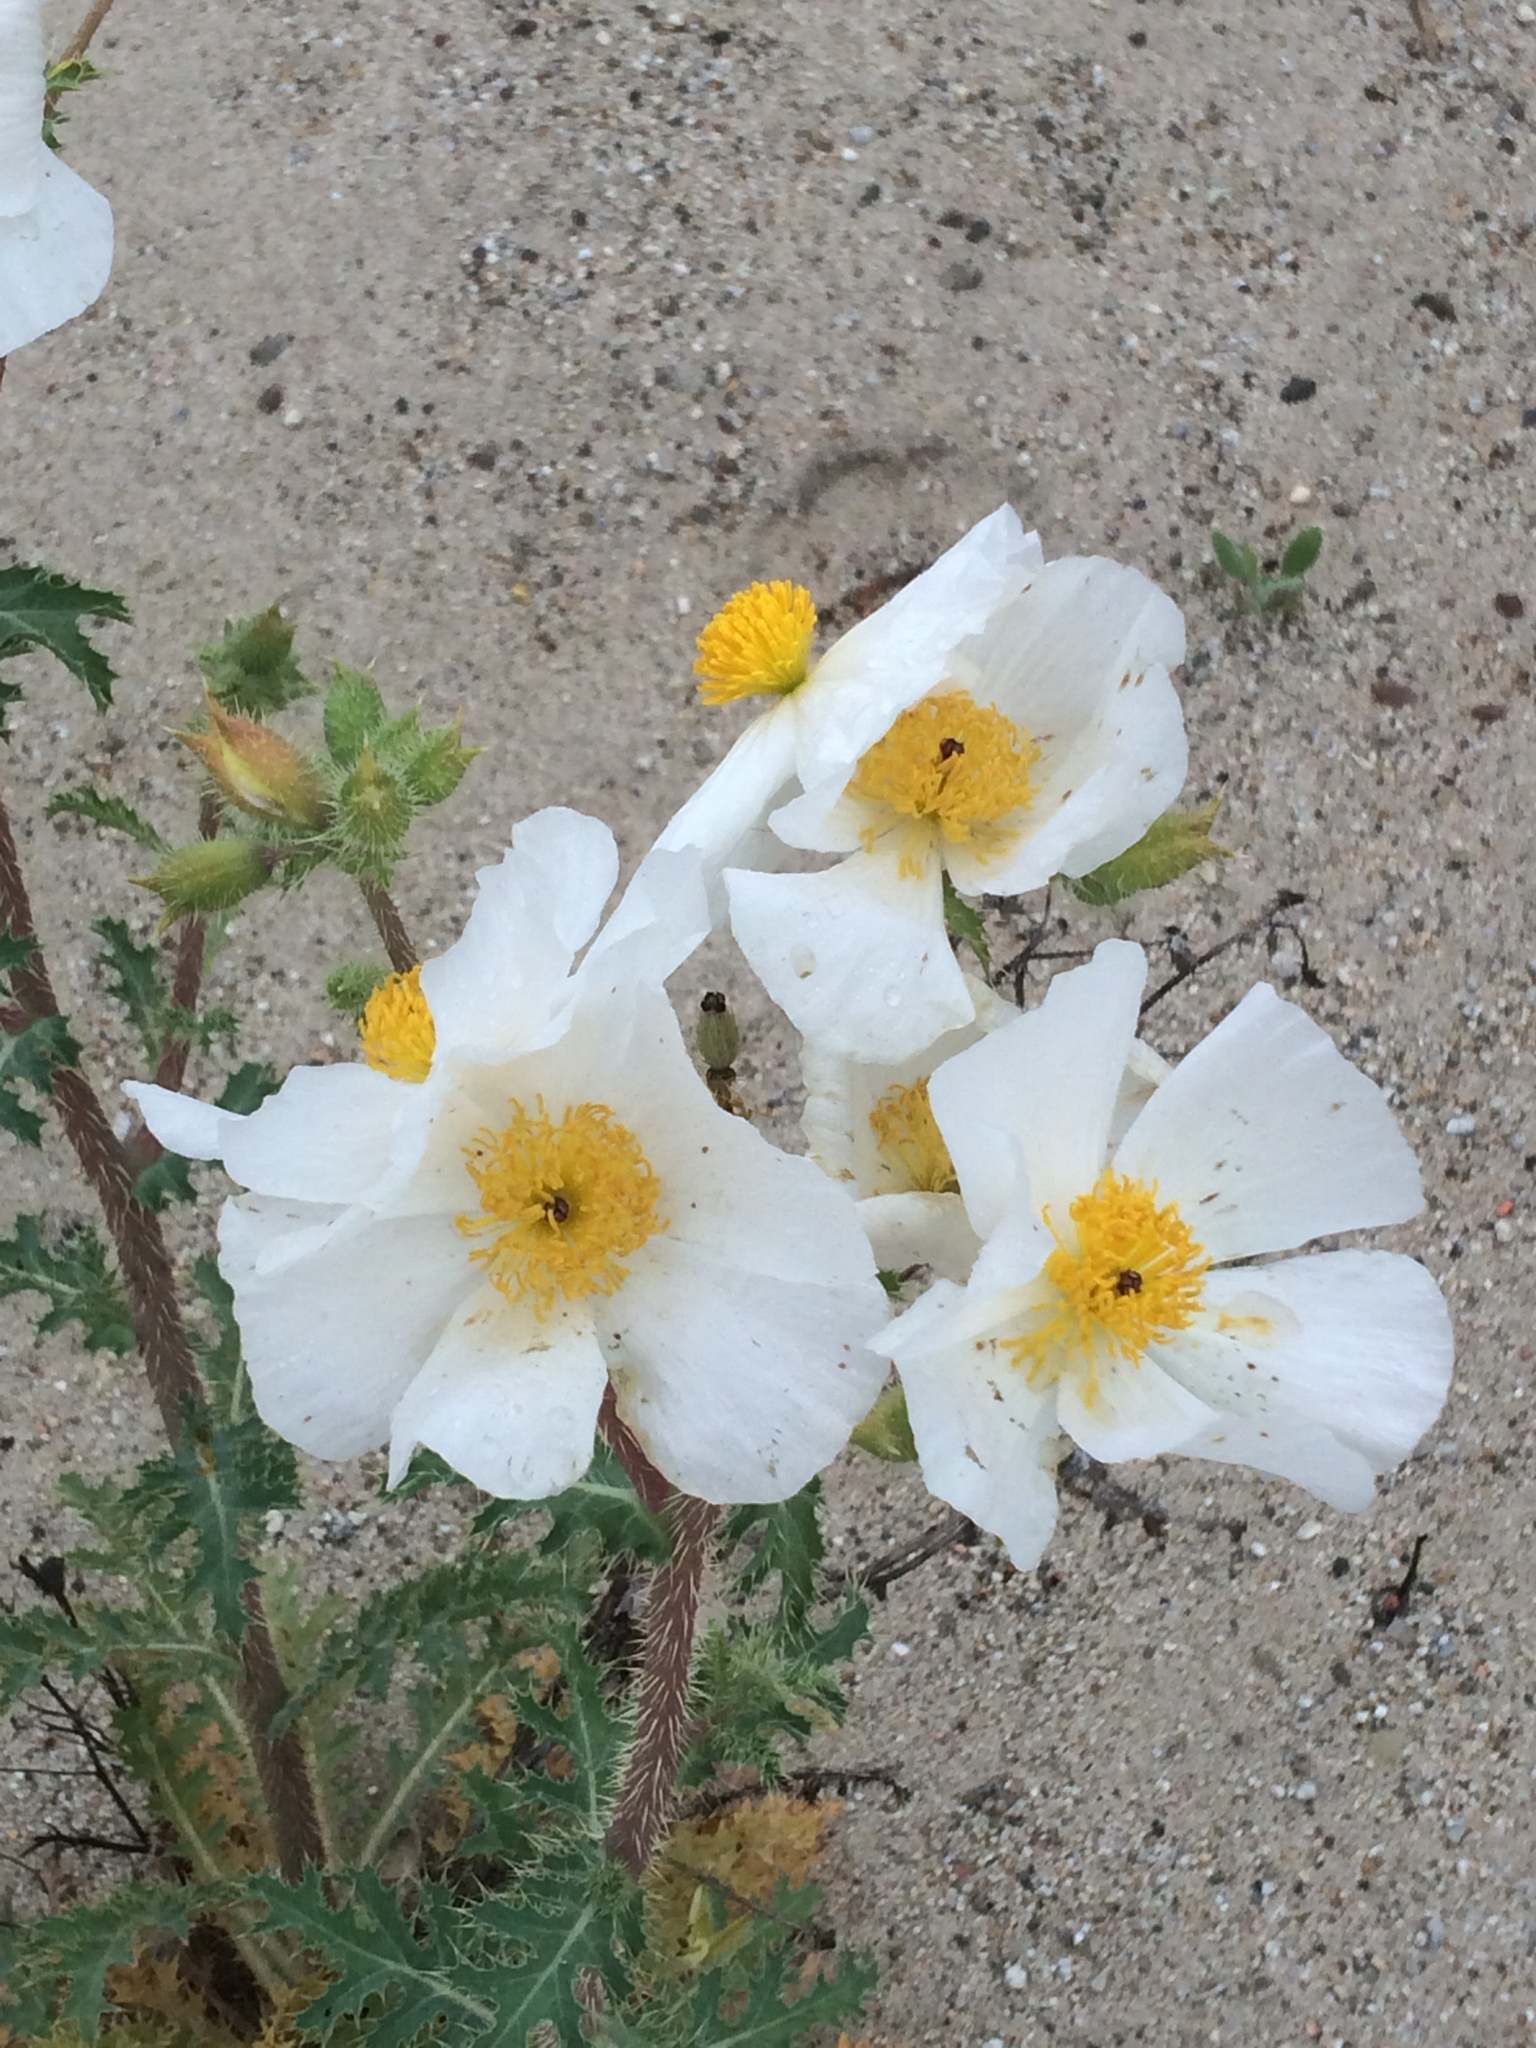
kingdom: Plantae
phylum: Tracheophyta
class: Magnoliopsida
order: Ranunculales
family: Papaveraceae
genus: Argemone
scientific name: Argemone munita
